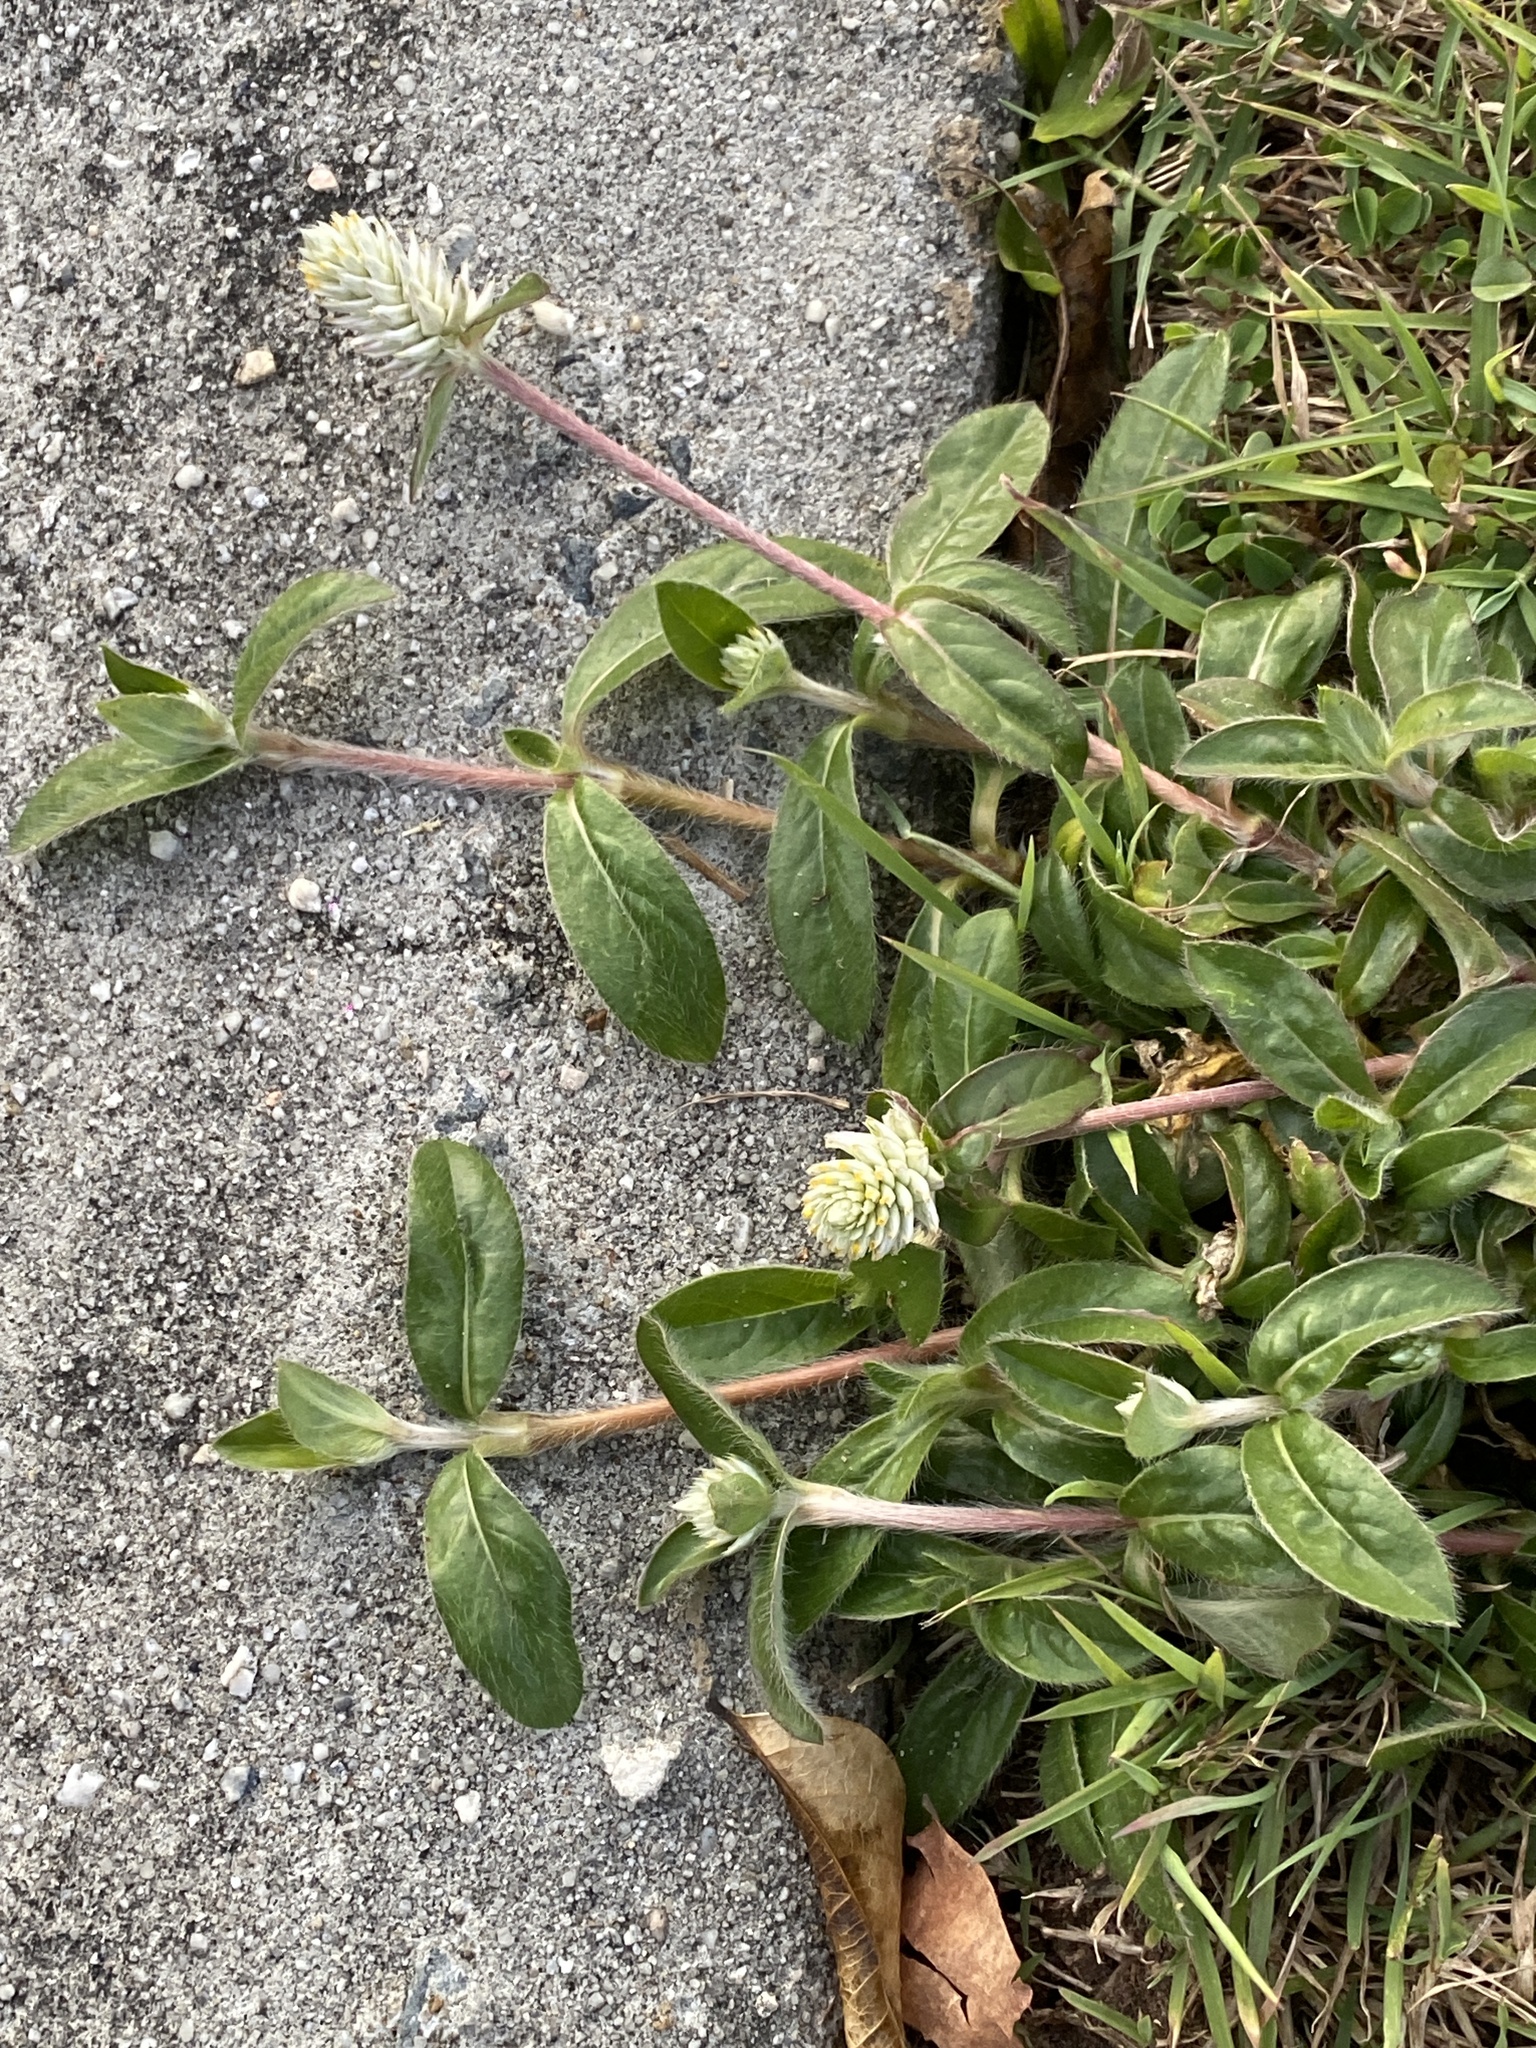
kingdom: Plantae
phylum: Tracheophyta
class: Magnoliopsida
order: Caryophyllales
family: Amaranthaceae
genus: Gomphrena
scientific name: Gomphrena celosioides
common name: Gomphrena-weed
